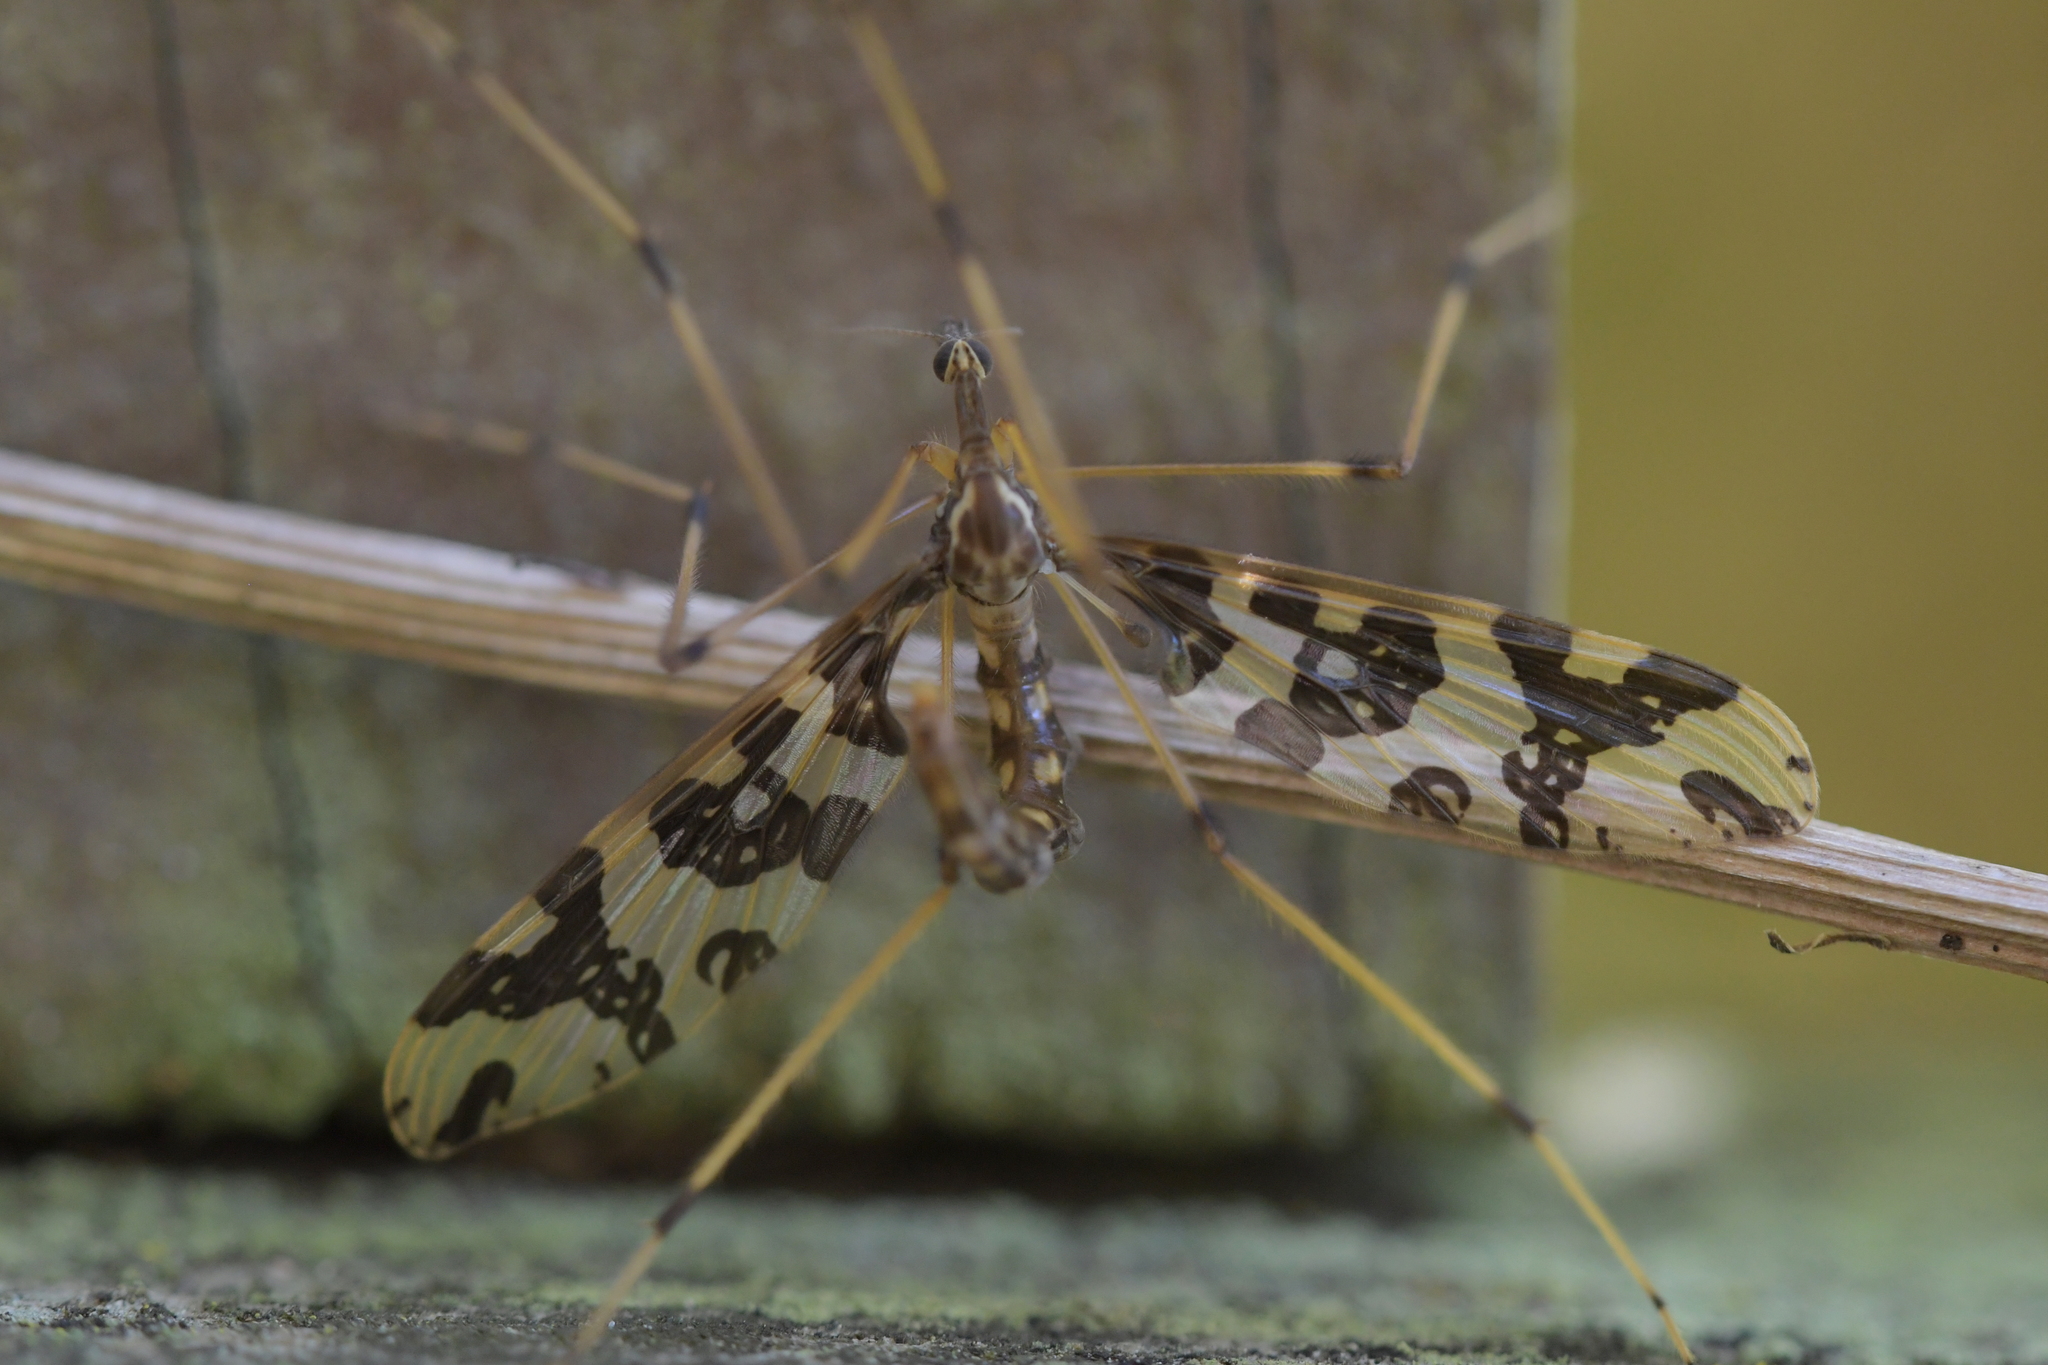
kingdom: Animalia
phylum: Arthropoda
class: Insecta
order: Diptera
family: Tanyderidae
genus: Tanyderus
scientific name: Tanyderus annuliferus
